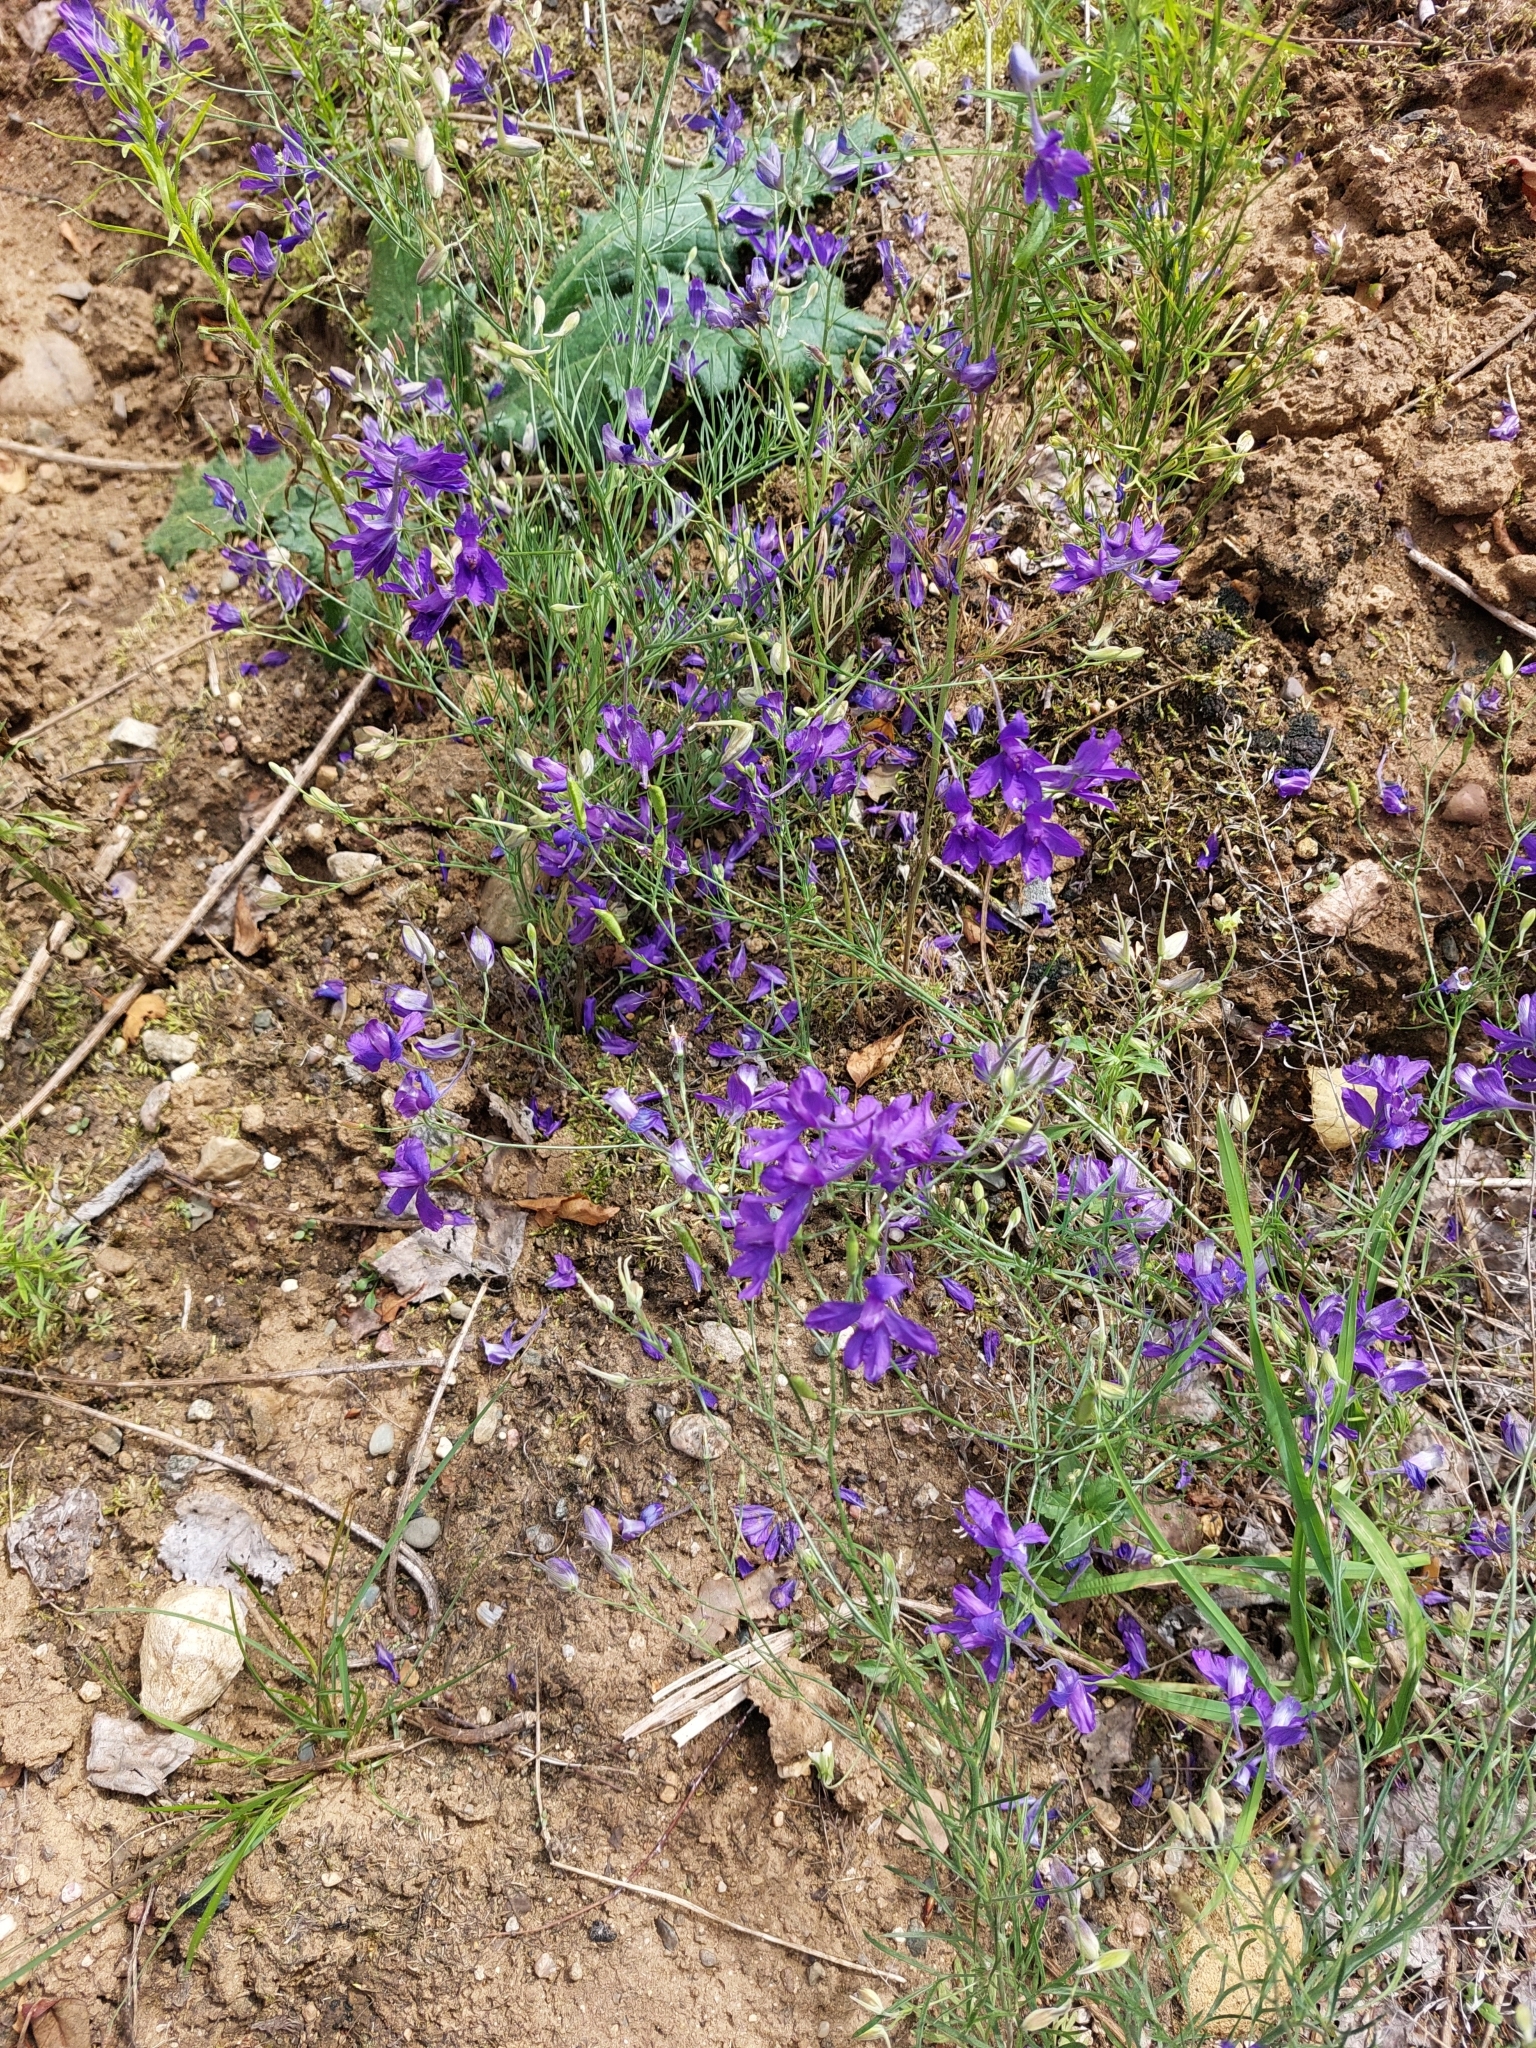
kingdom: Plantae
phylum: Tracheophyta
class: Magnoliopsida
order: Ranunculales
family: Ranunculaceae
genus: Delphinium
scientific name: Delphinium consolida
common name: Branching larkspur
